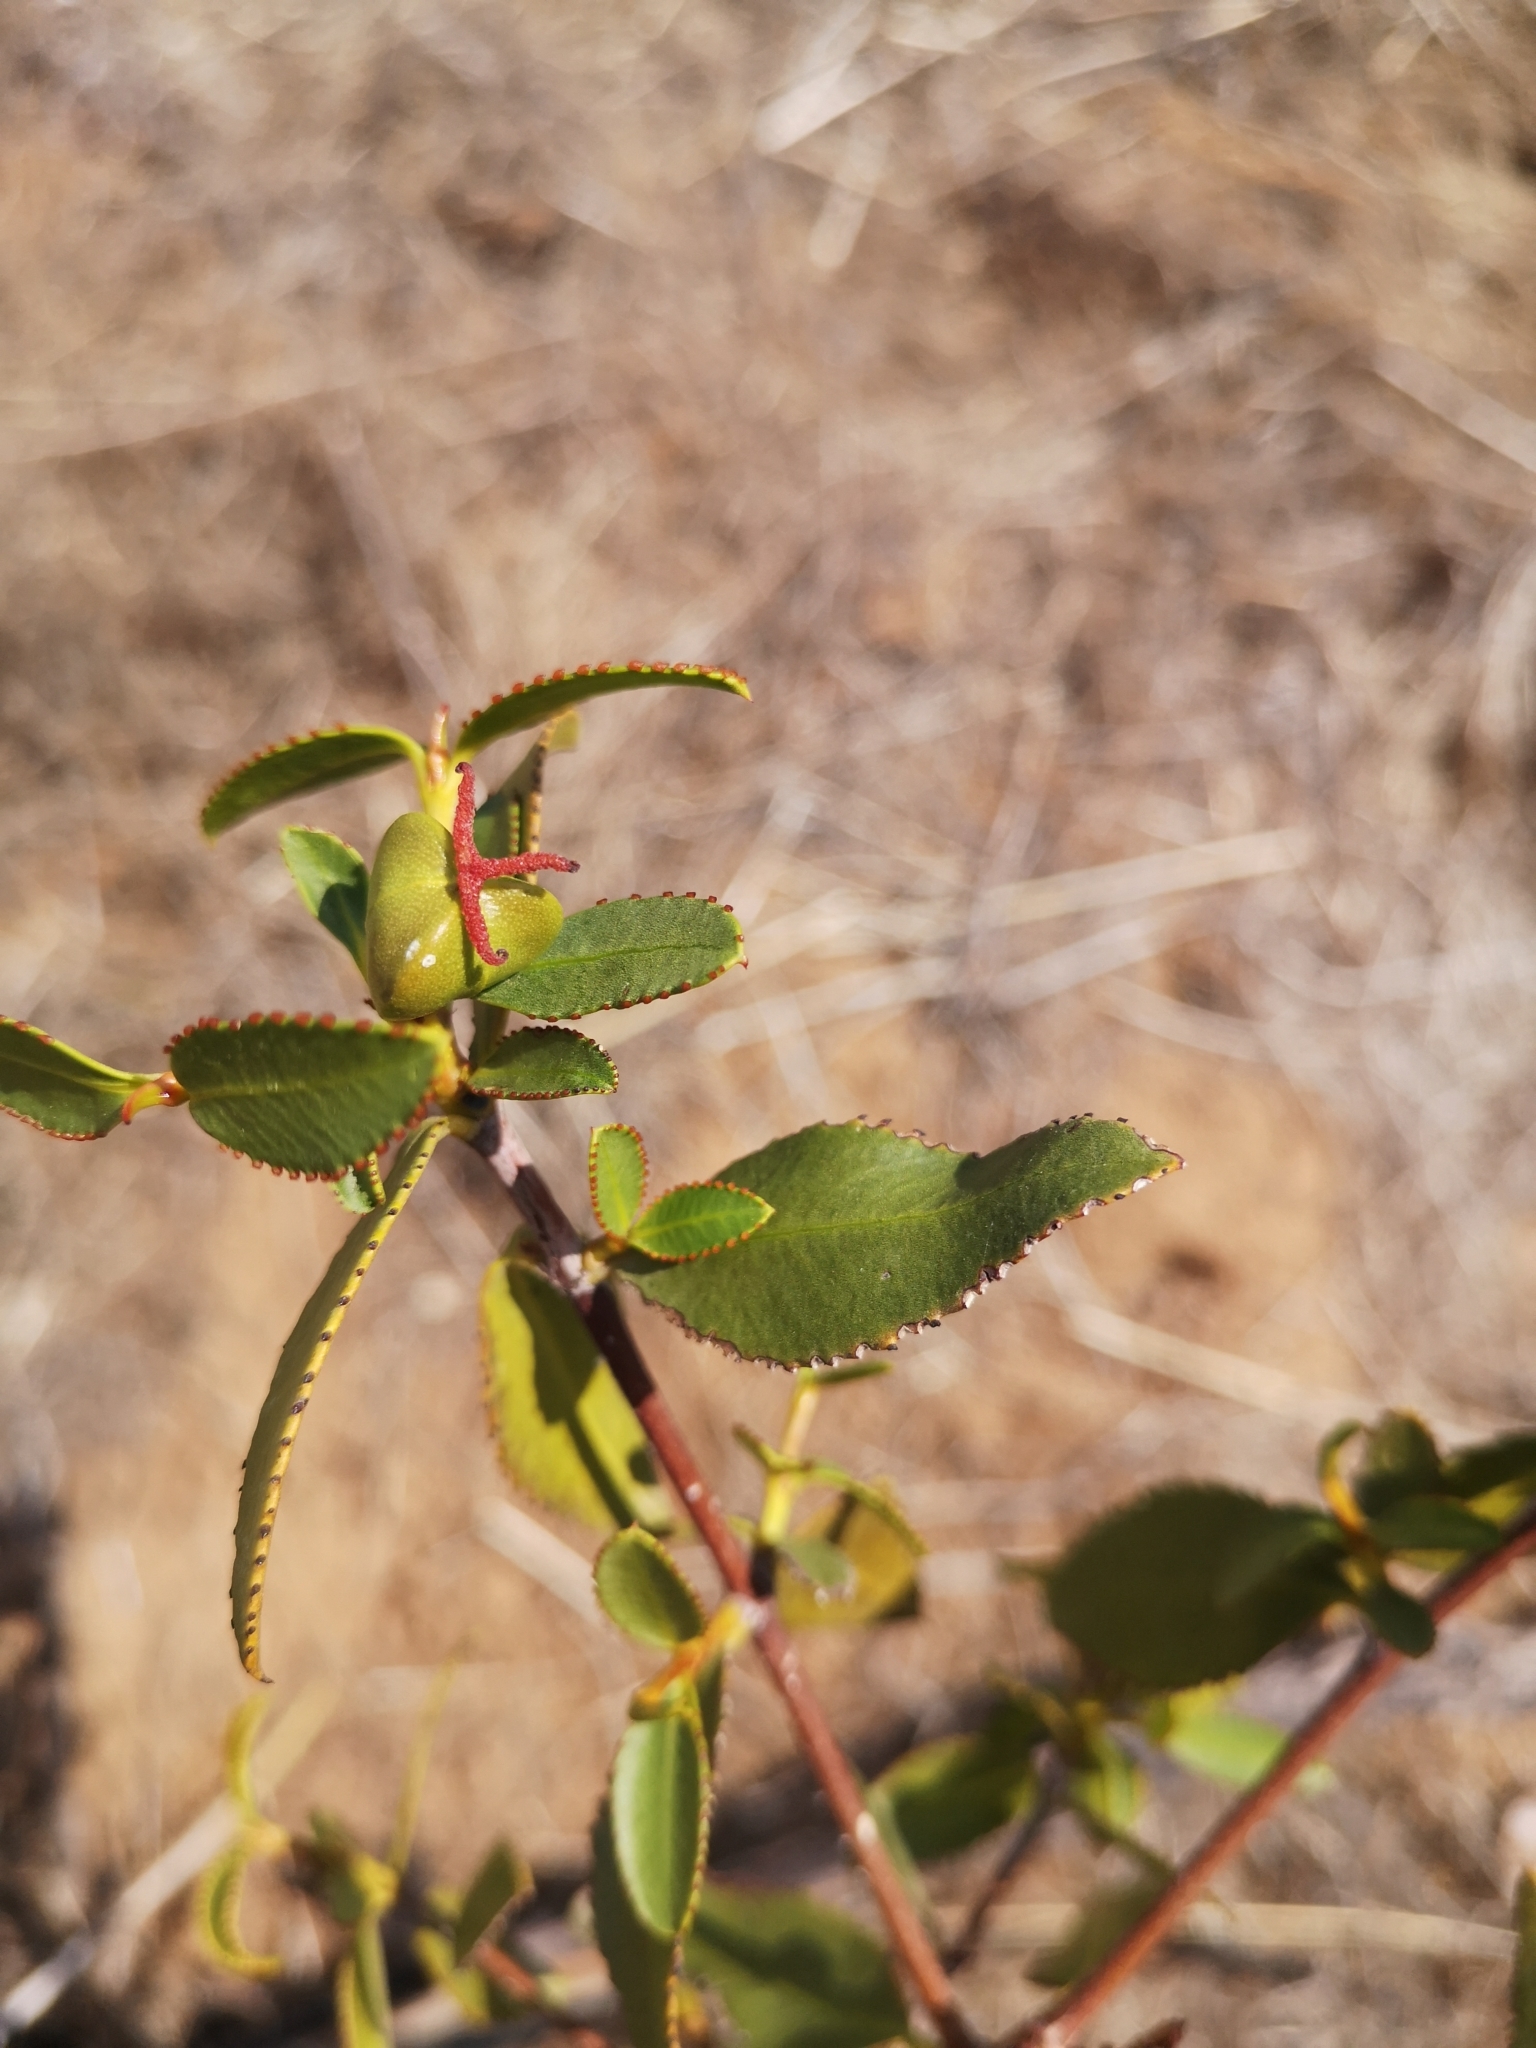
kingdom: Plantae
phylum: Tracheophyta
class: Magnoliopsida
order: Malpighiales
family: Euphorbiaceae
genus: Colliguaja
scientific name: Colliguaja odorifera
